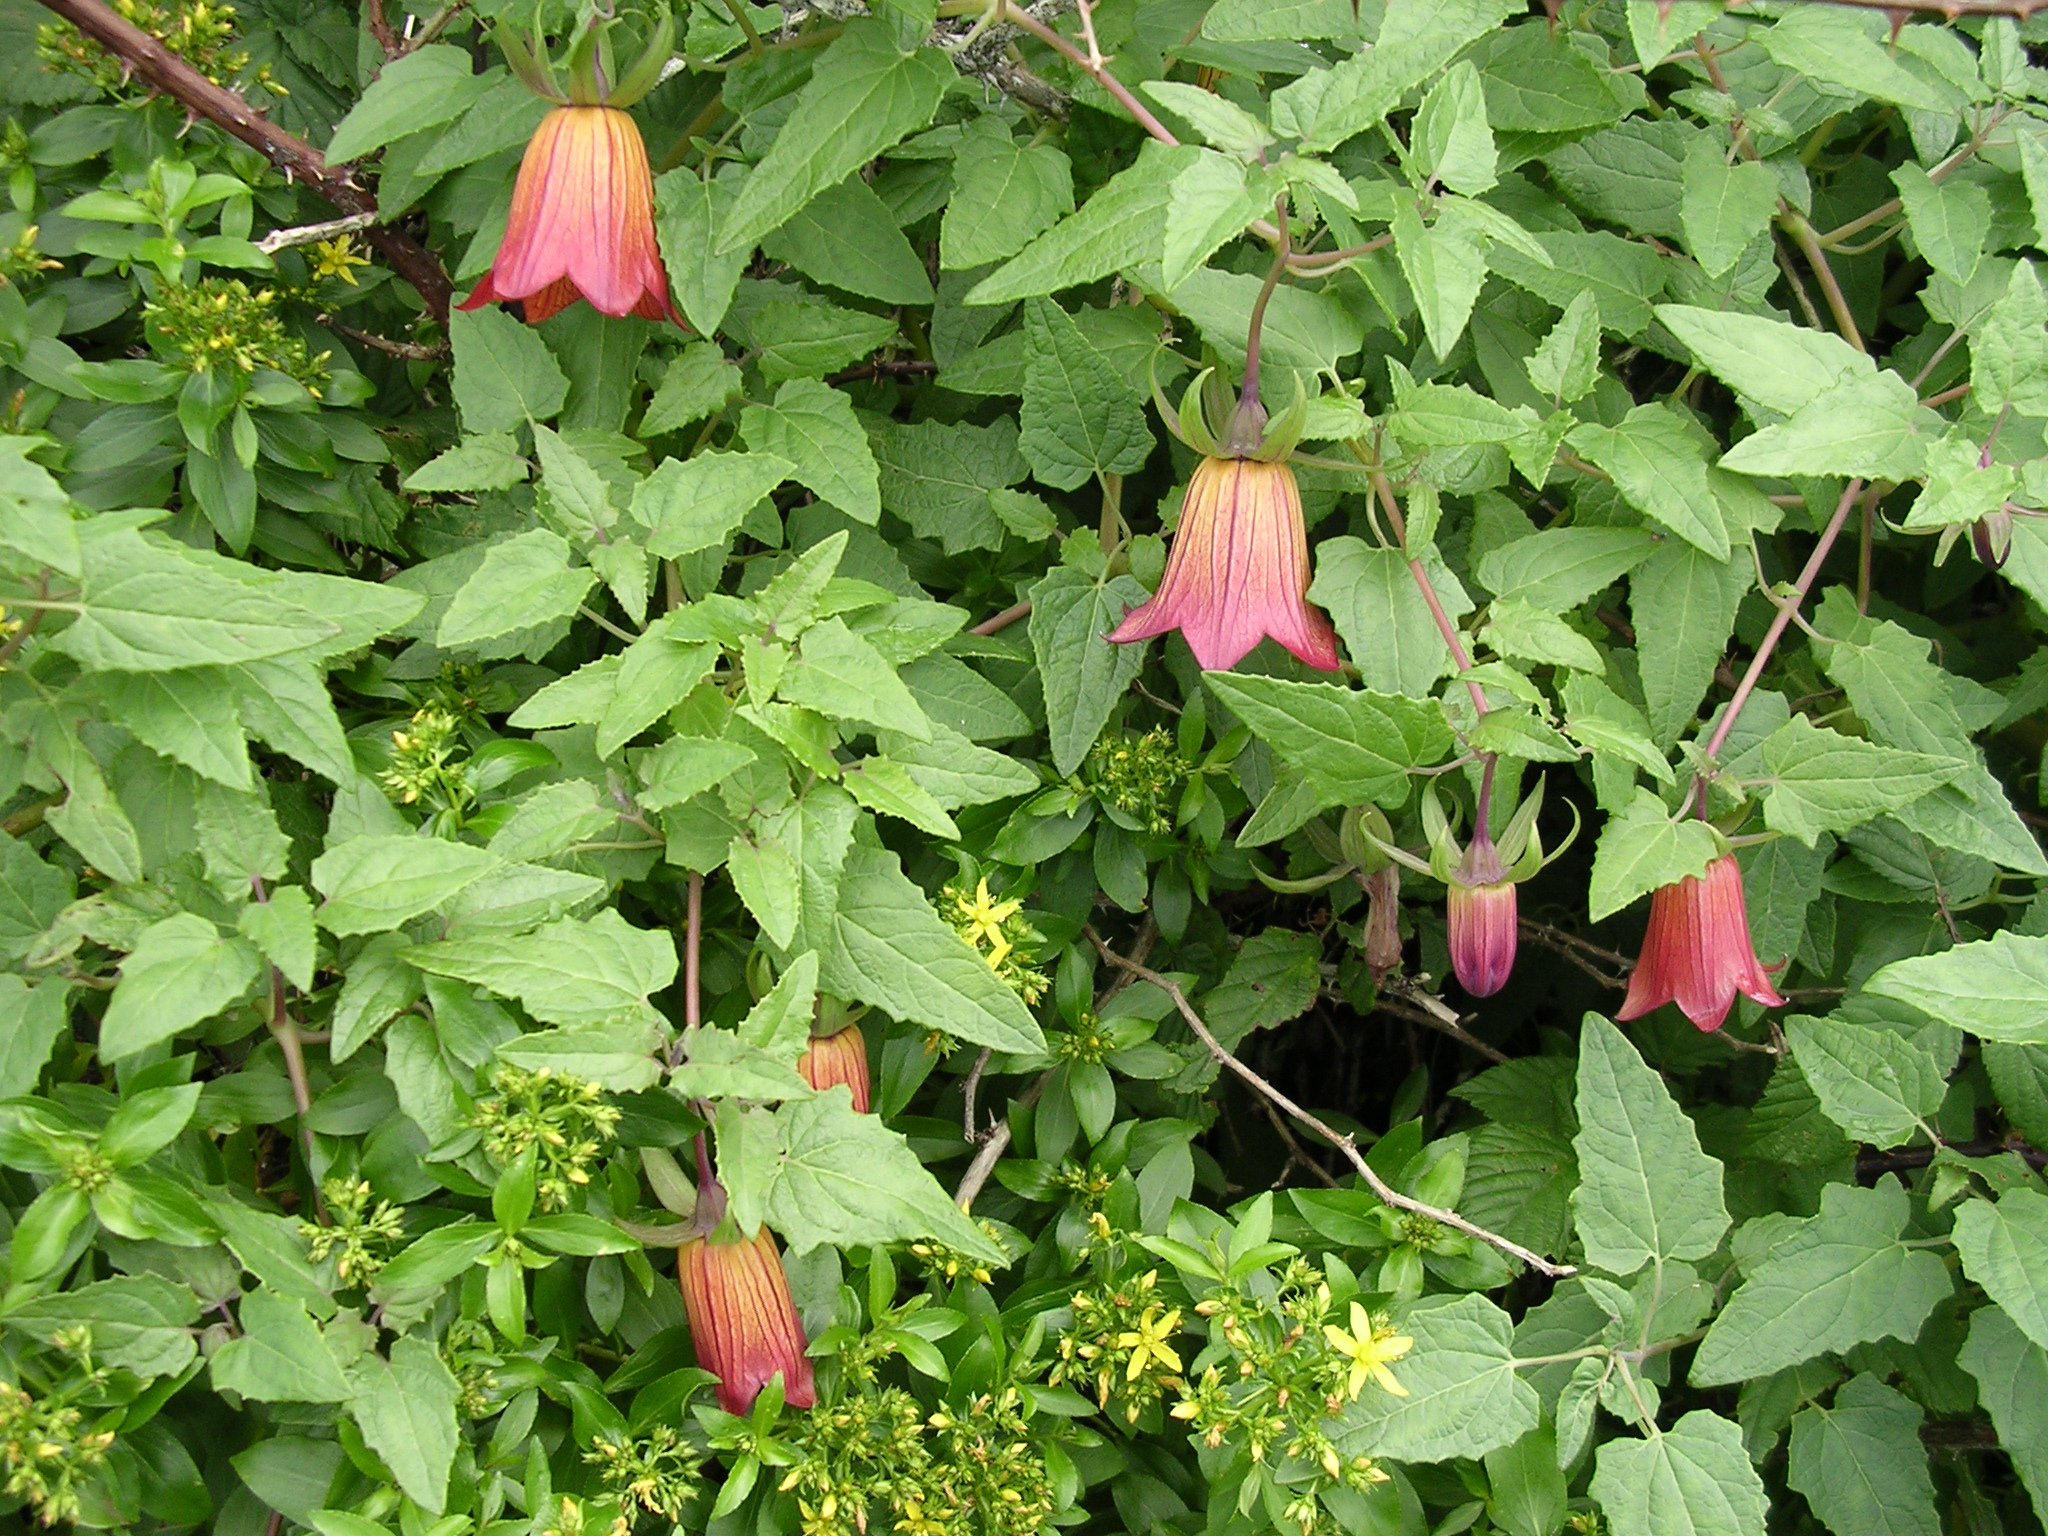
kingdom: Plantae
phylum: Tracheophyta
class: Magnoliopsida
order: Asterales
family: Campanulaceae
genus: Canarina
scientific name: Canarina canariensis
